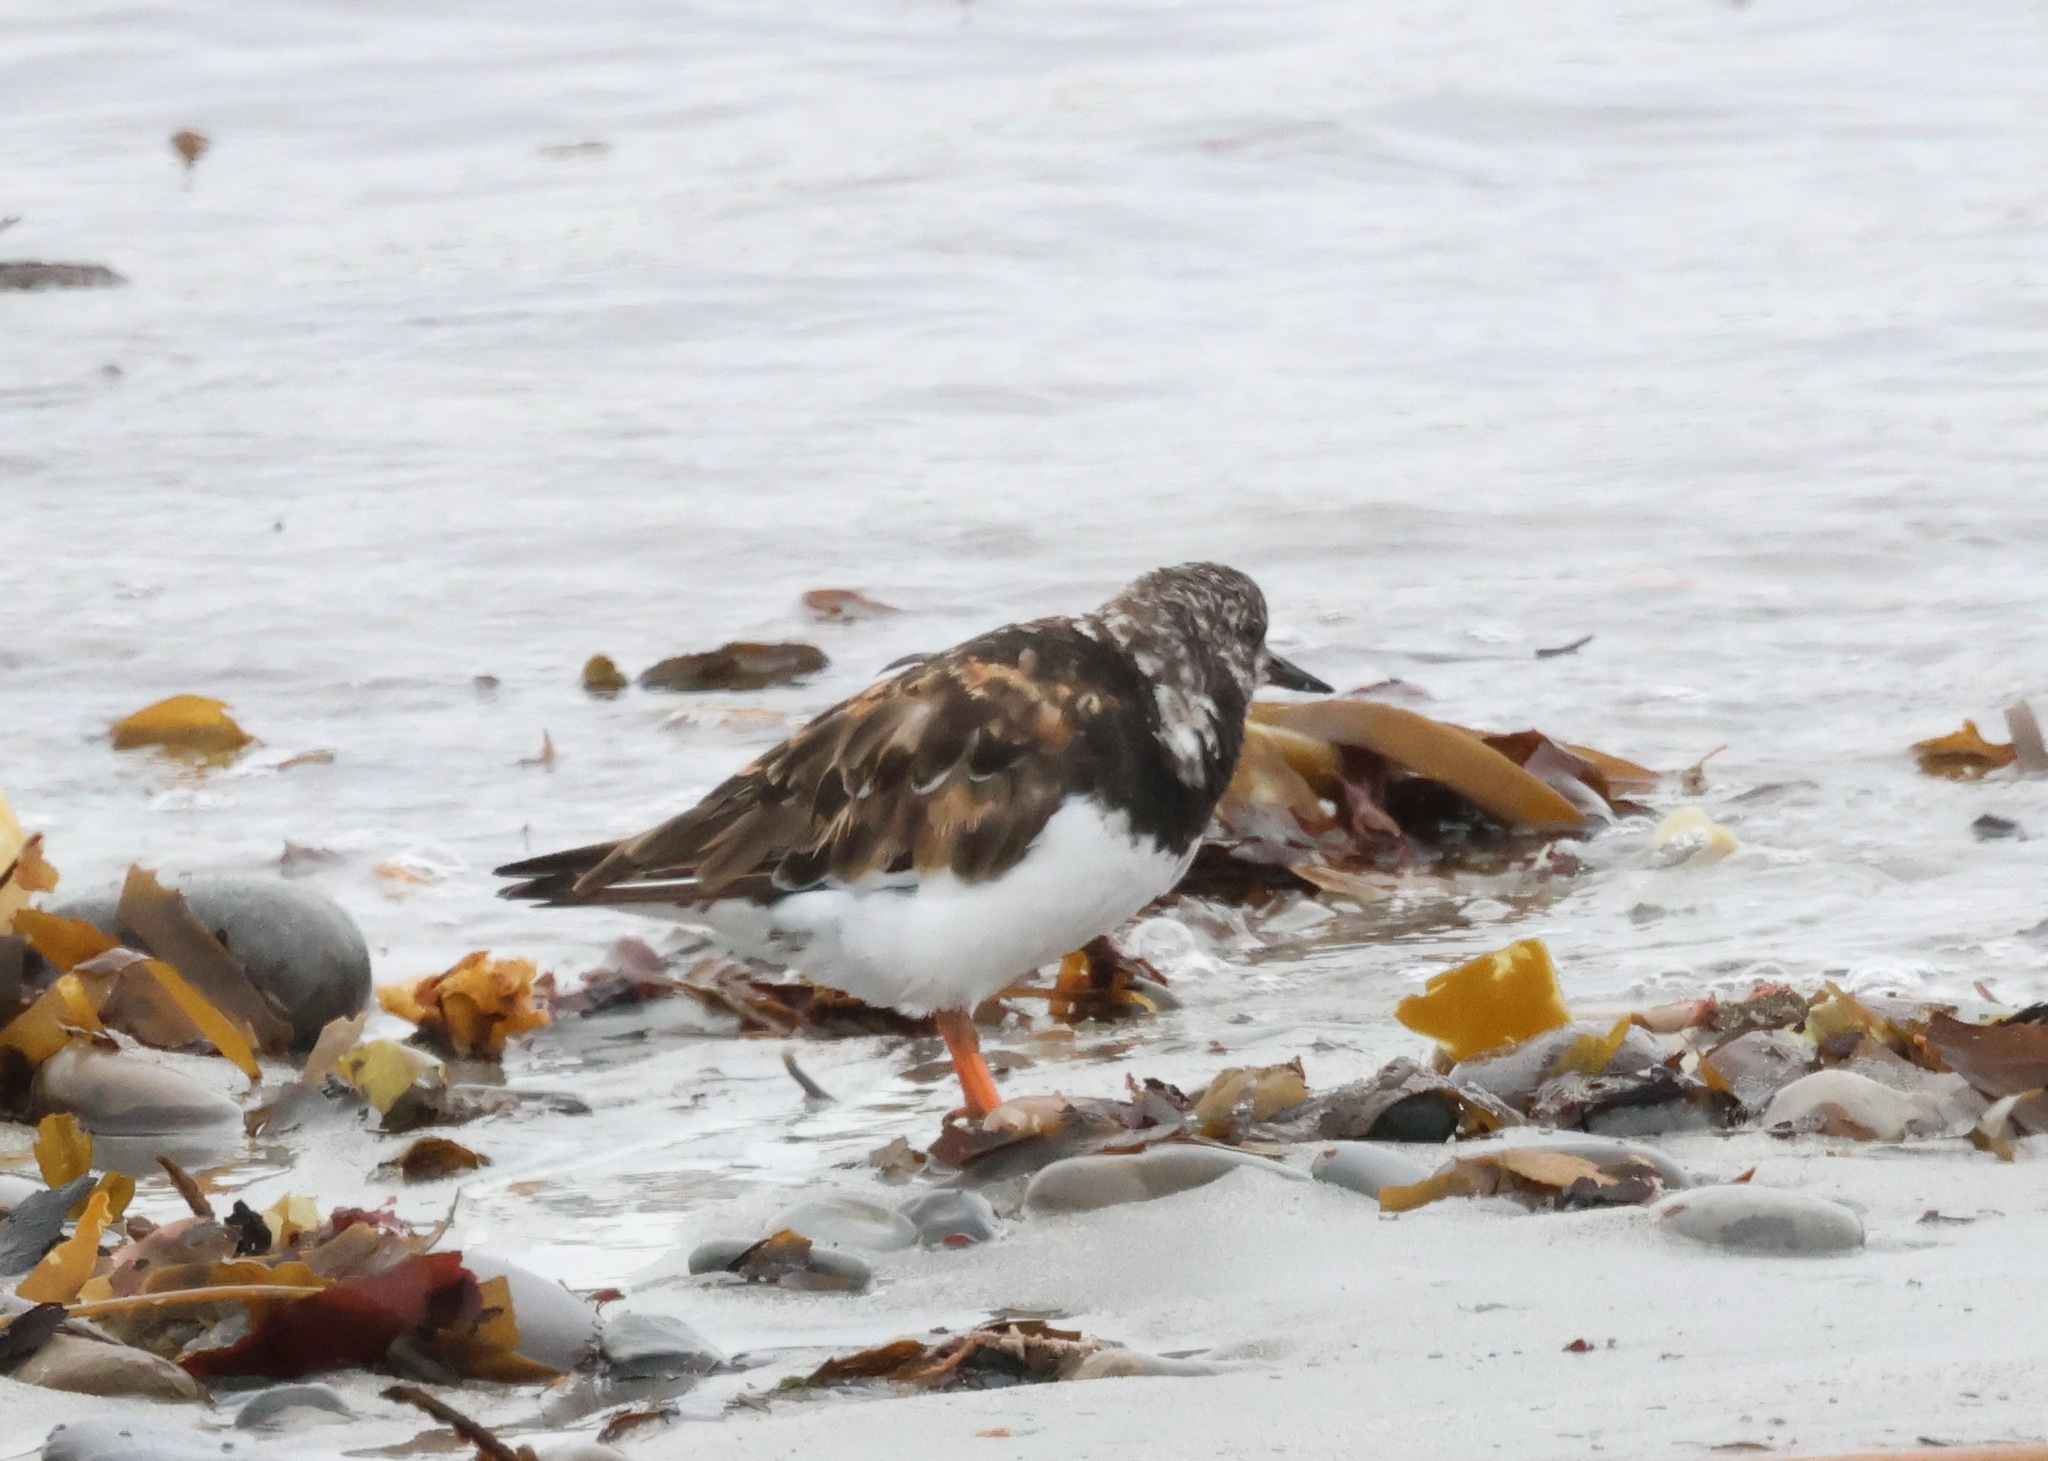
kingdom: Animalia
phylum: Chordata
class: Aves
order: Charadriiformes
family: Scolopacidae
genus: Arenaria
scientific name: Arenaria interpres
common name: Ruddy turnstone
